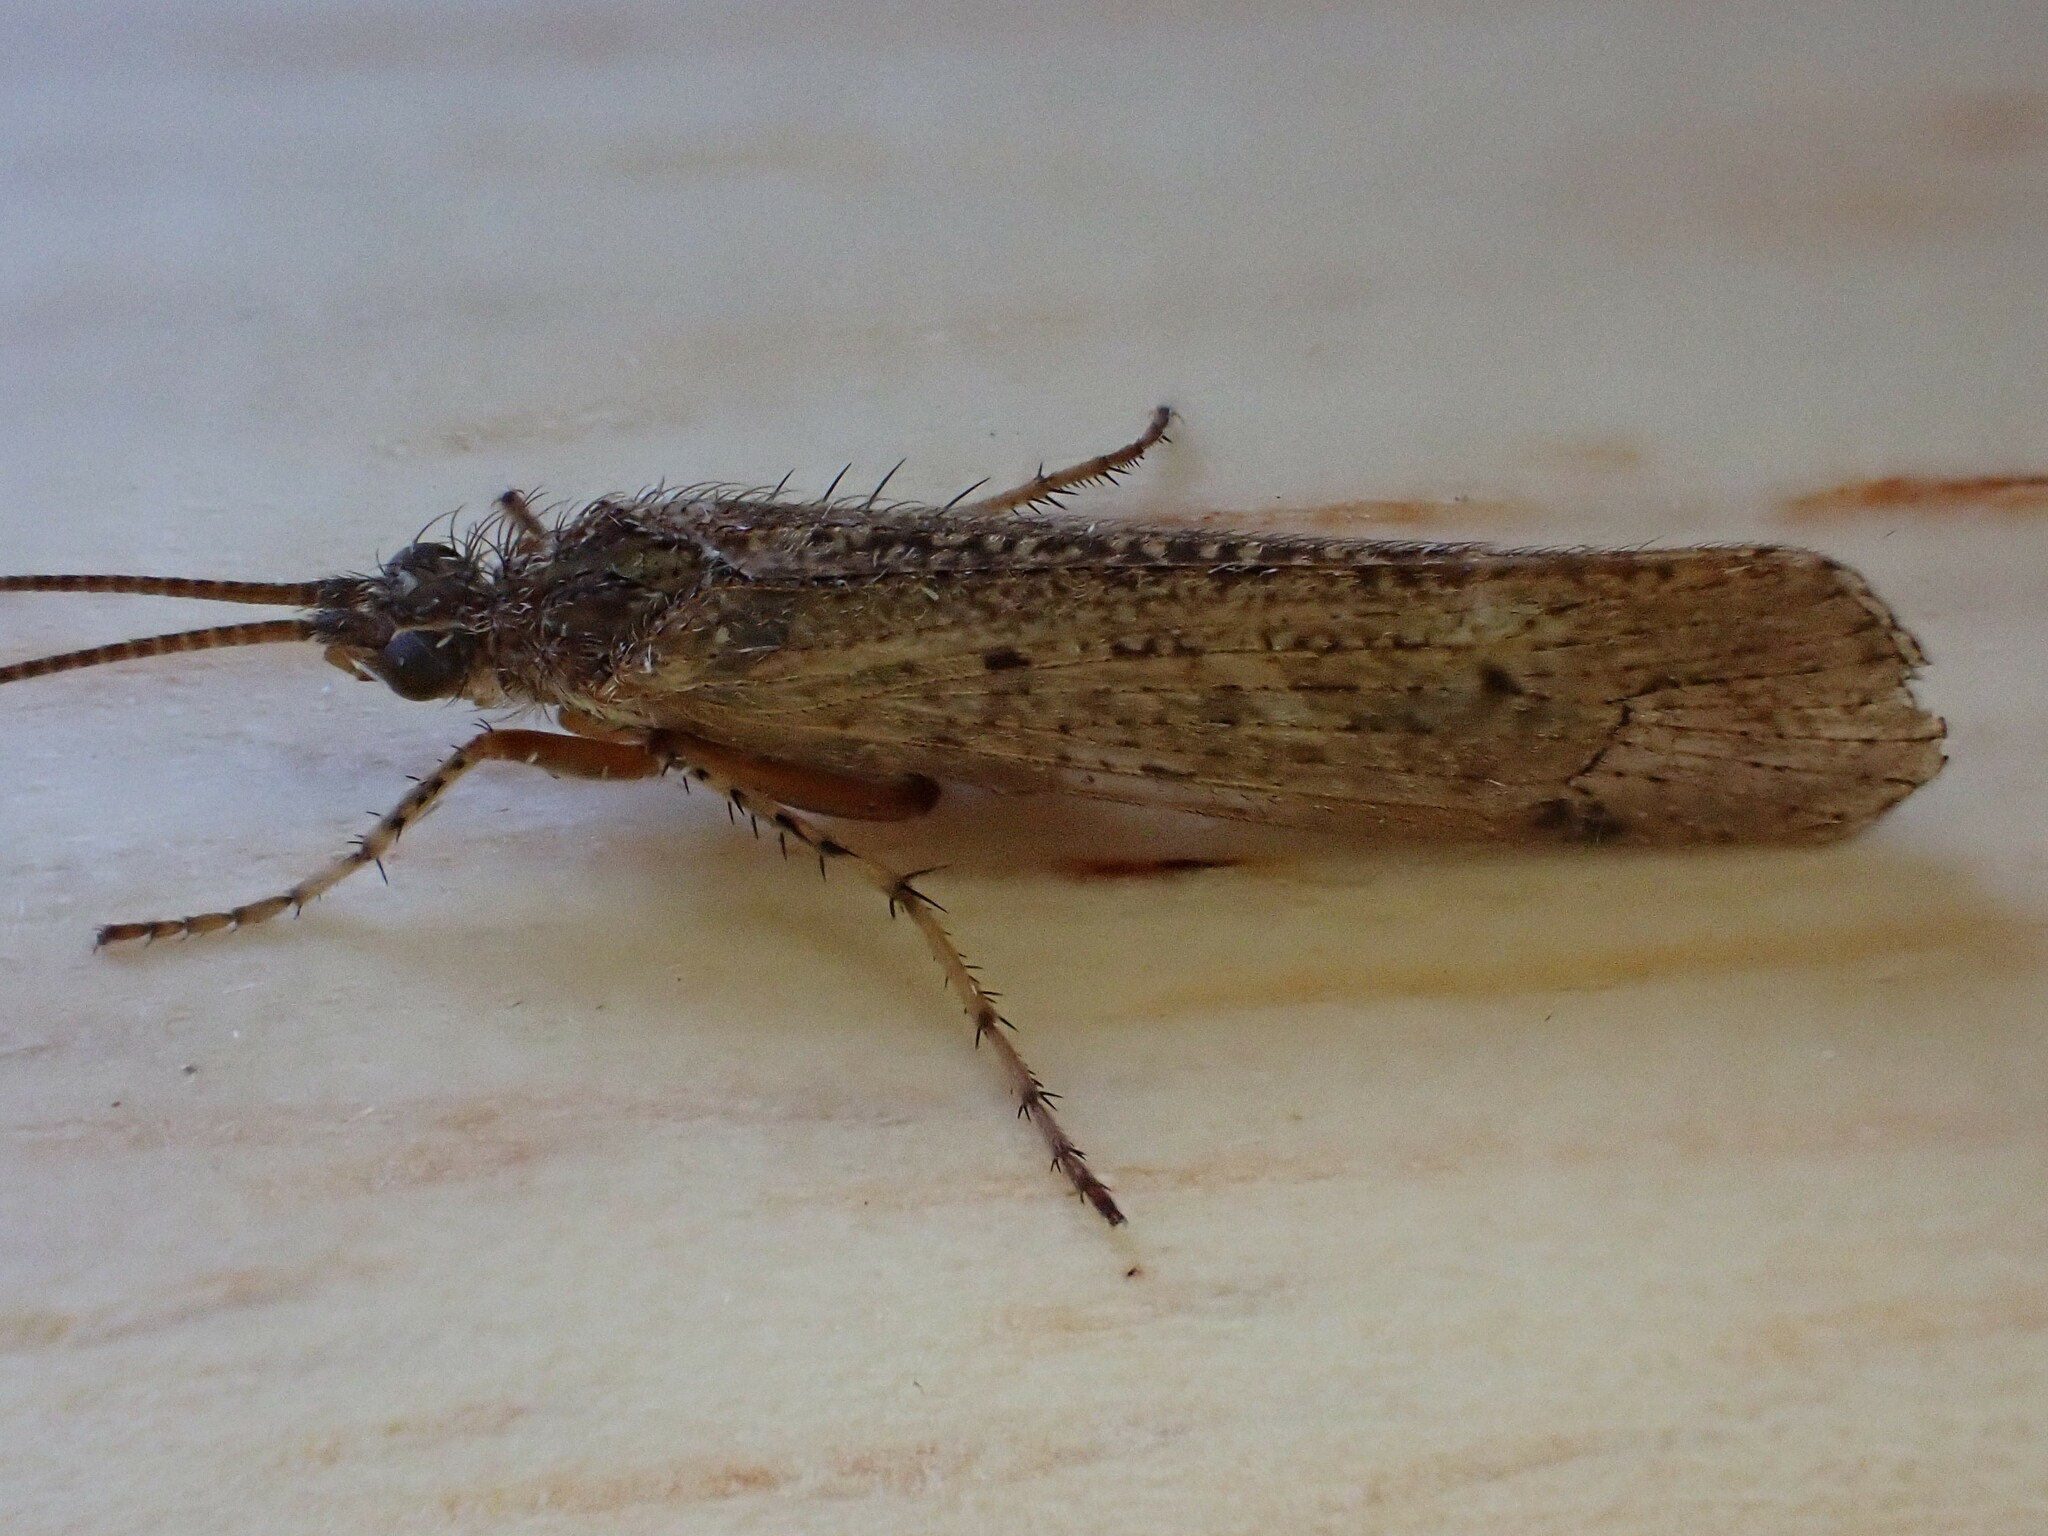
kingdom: Animalia
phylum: Arthropoda
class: Insecta
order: Trichoptera
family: Limnephilidae
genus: Limnephilus
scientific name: Limnephilus affinis
